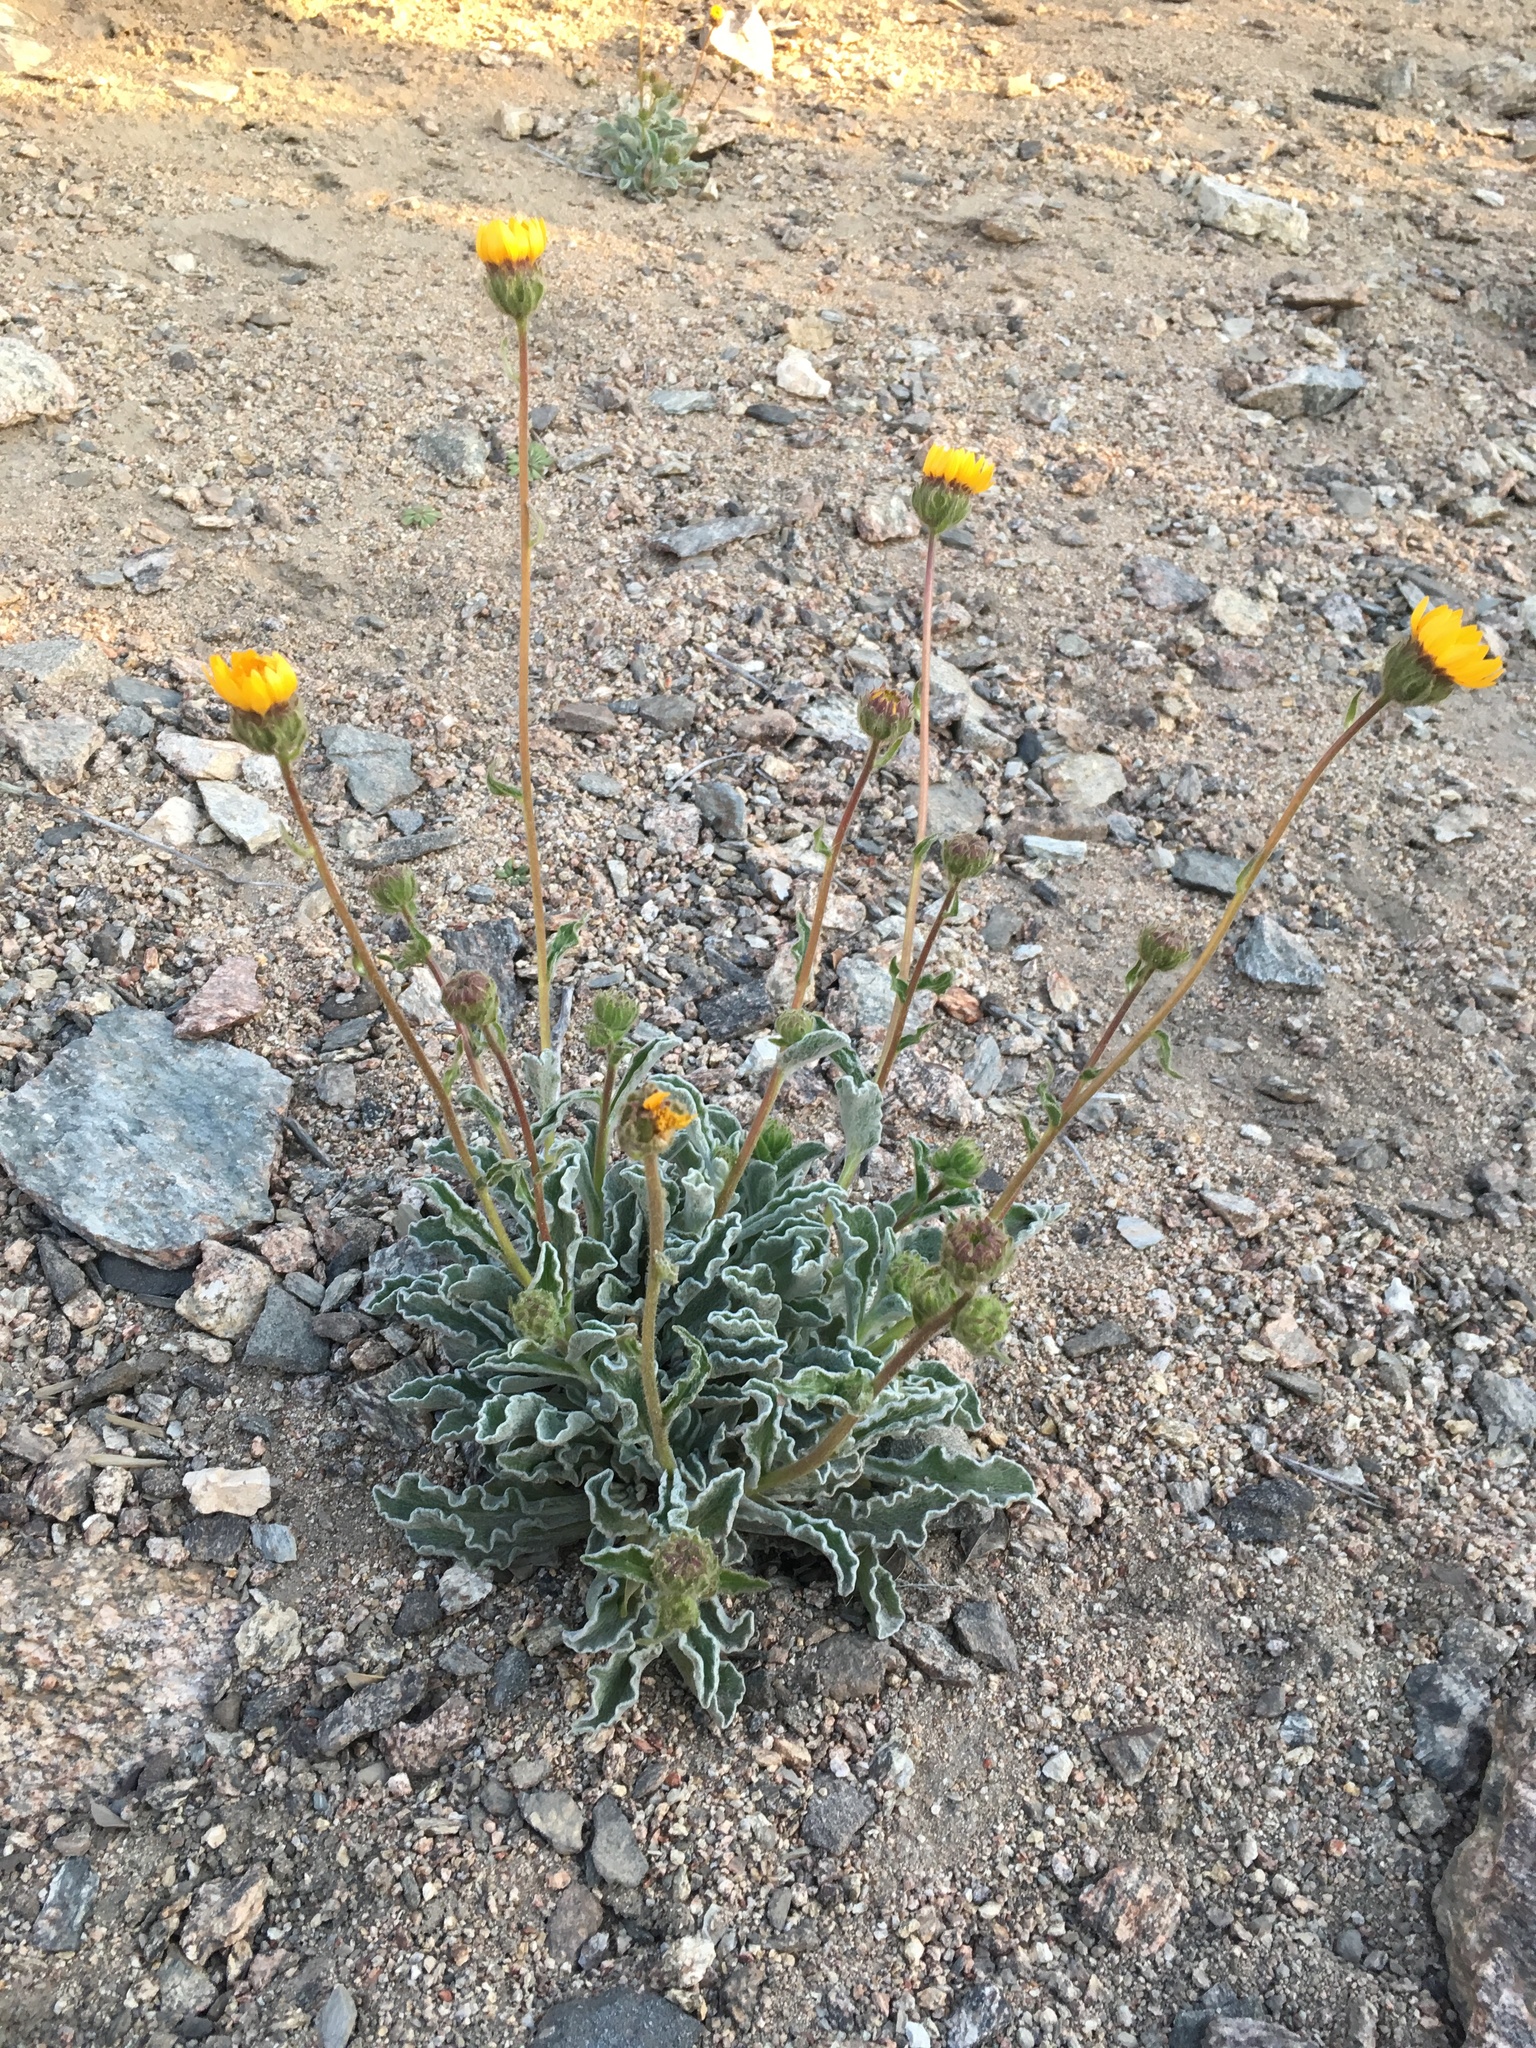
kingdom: Plantae
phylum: Tracheophyta
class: Magnoliopsida
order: Asterales
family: Asteraceae
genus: Hulsea
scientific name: Hulsea vestita
